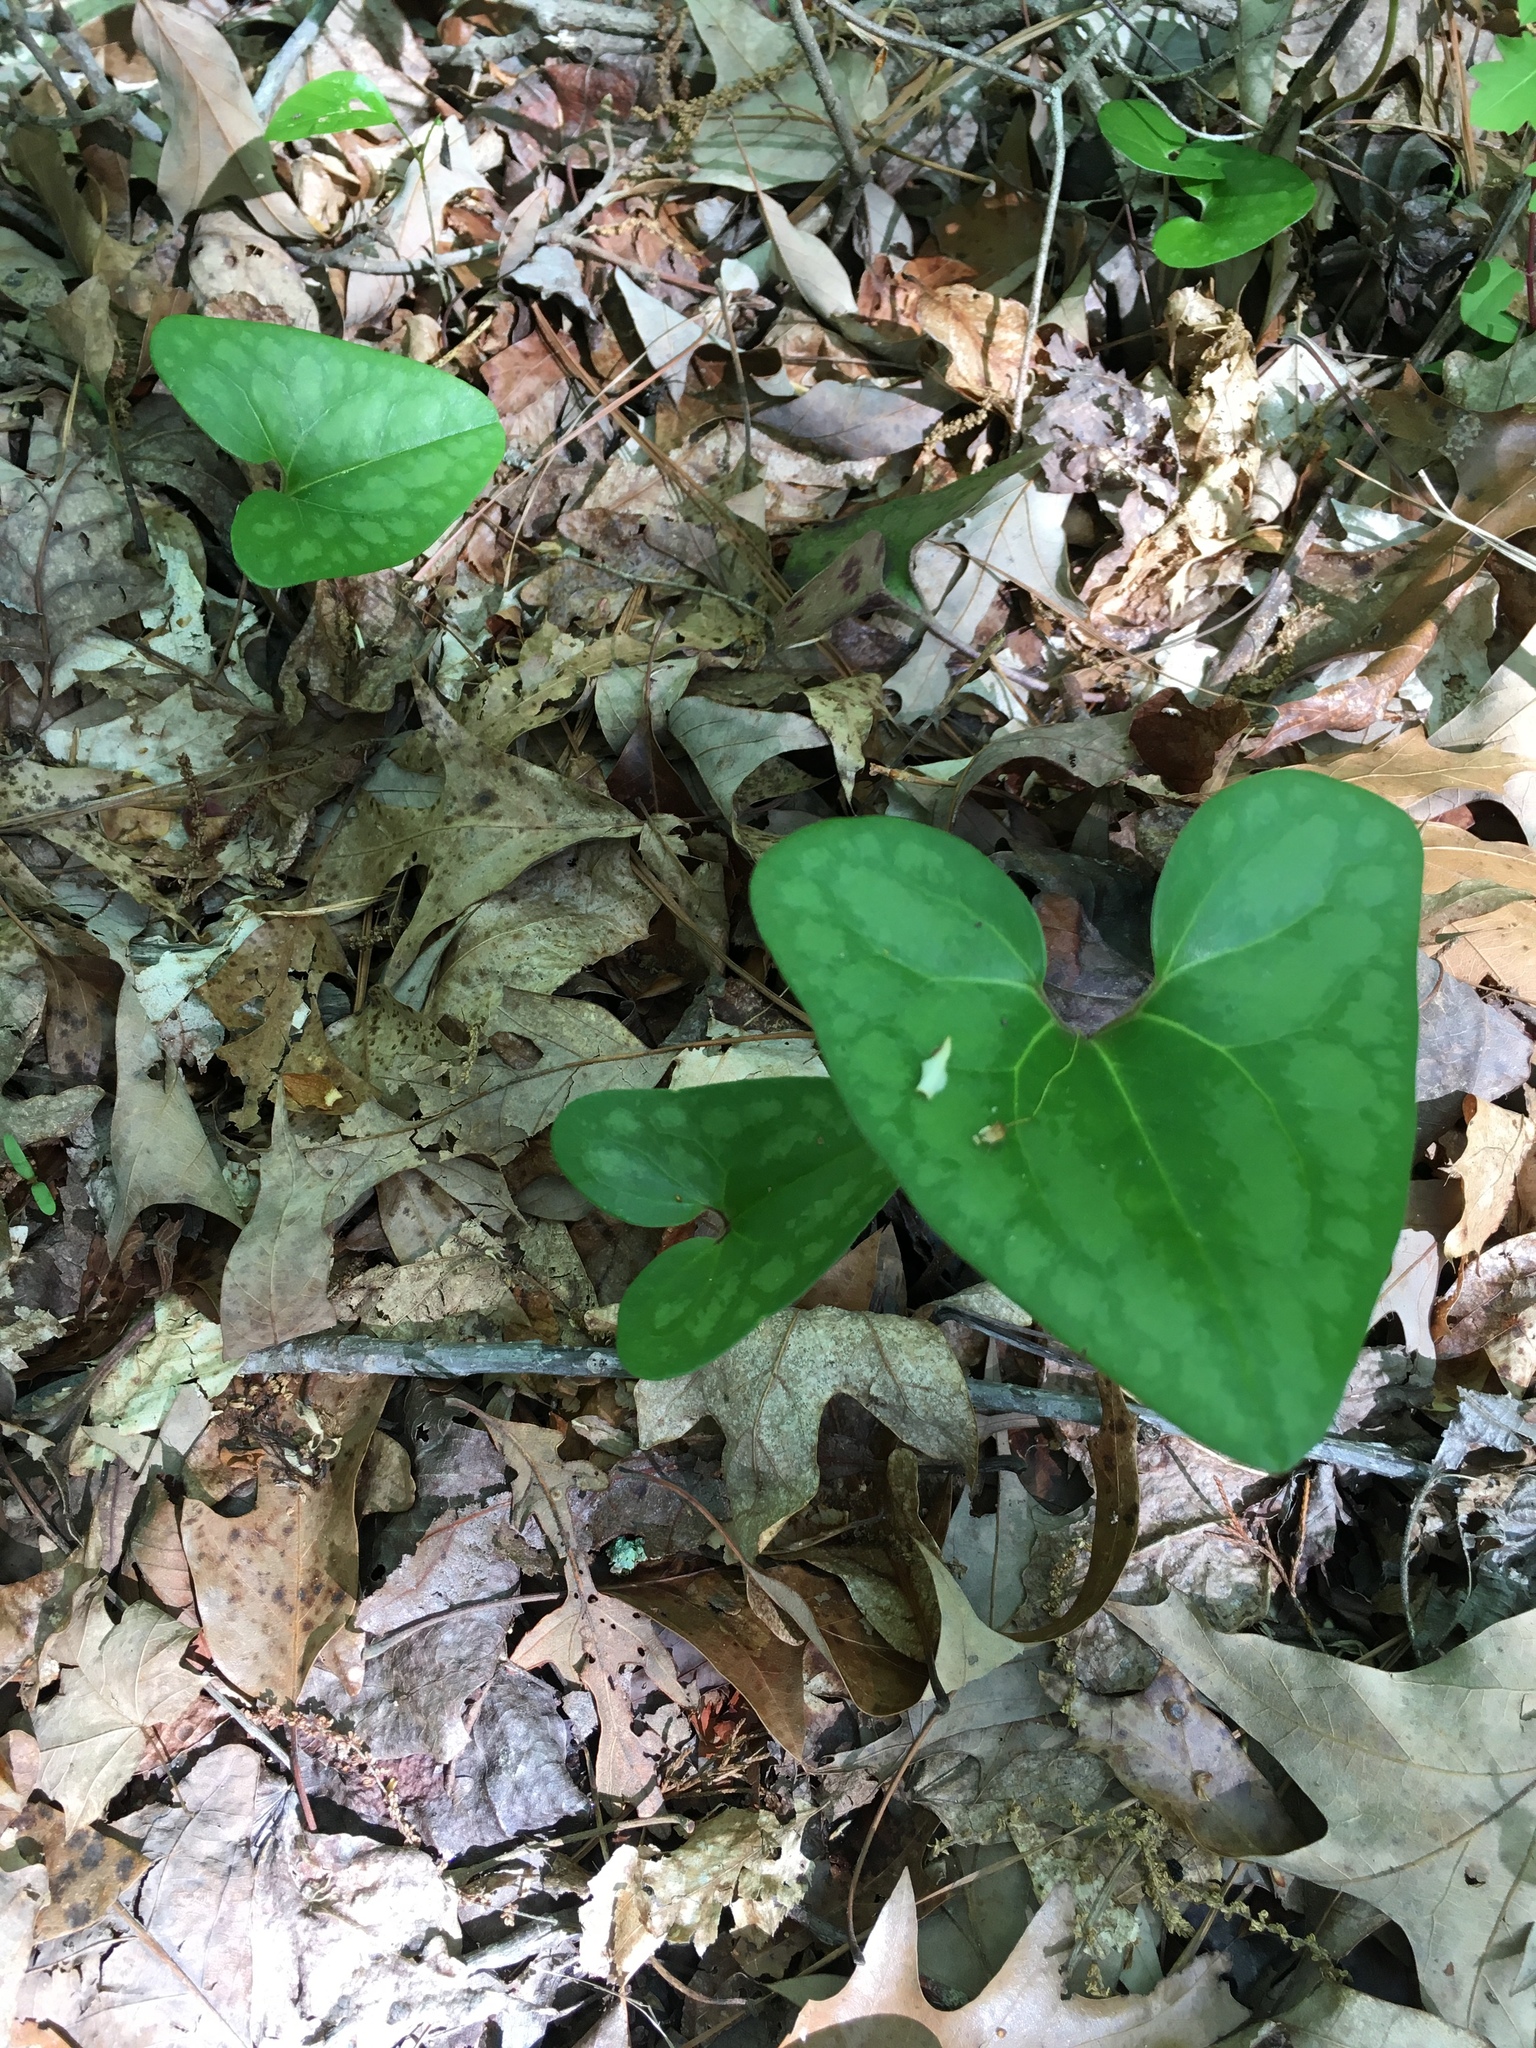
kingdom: Plantae
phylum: Tracheophyta
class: Magnoliopsida
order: Piperales
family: Aristolochiaceae
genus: Hexastylis
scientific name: Hexastylis arifolia
